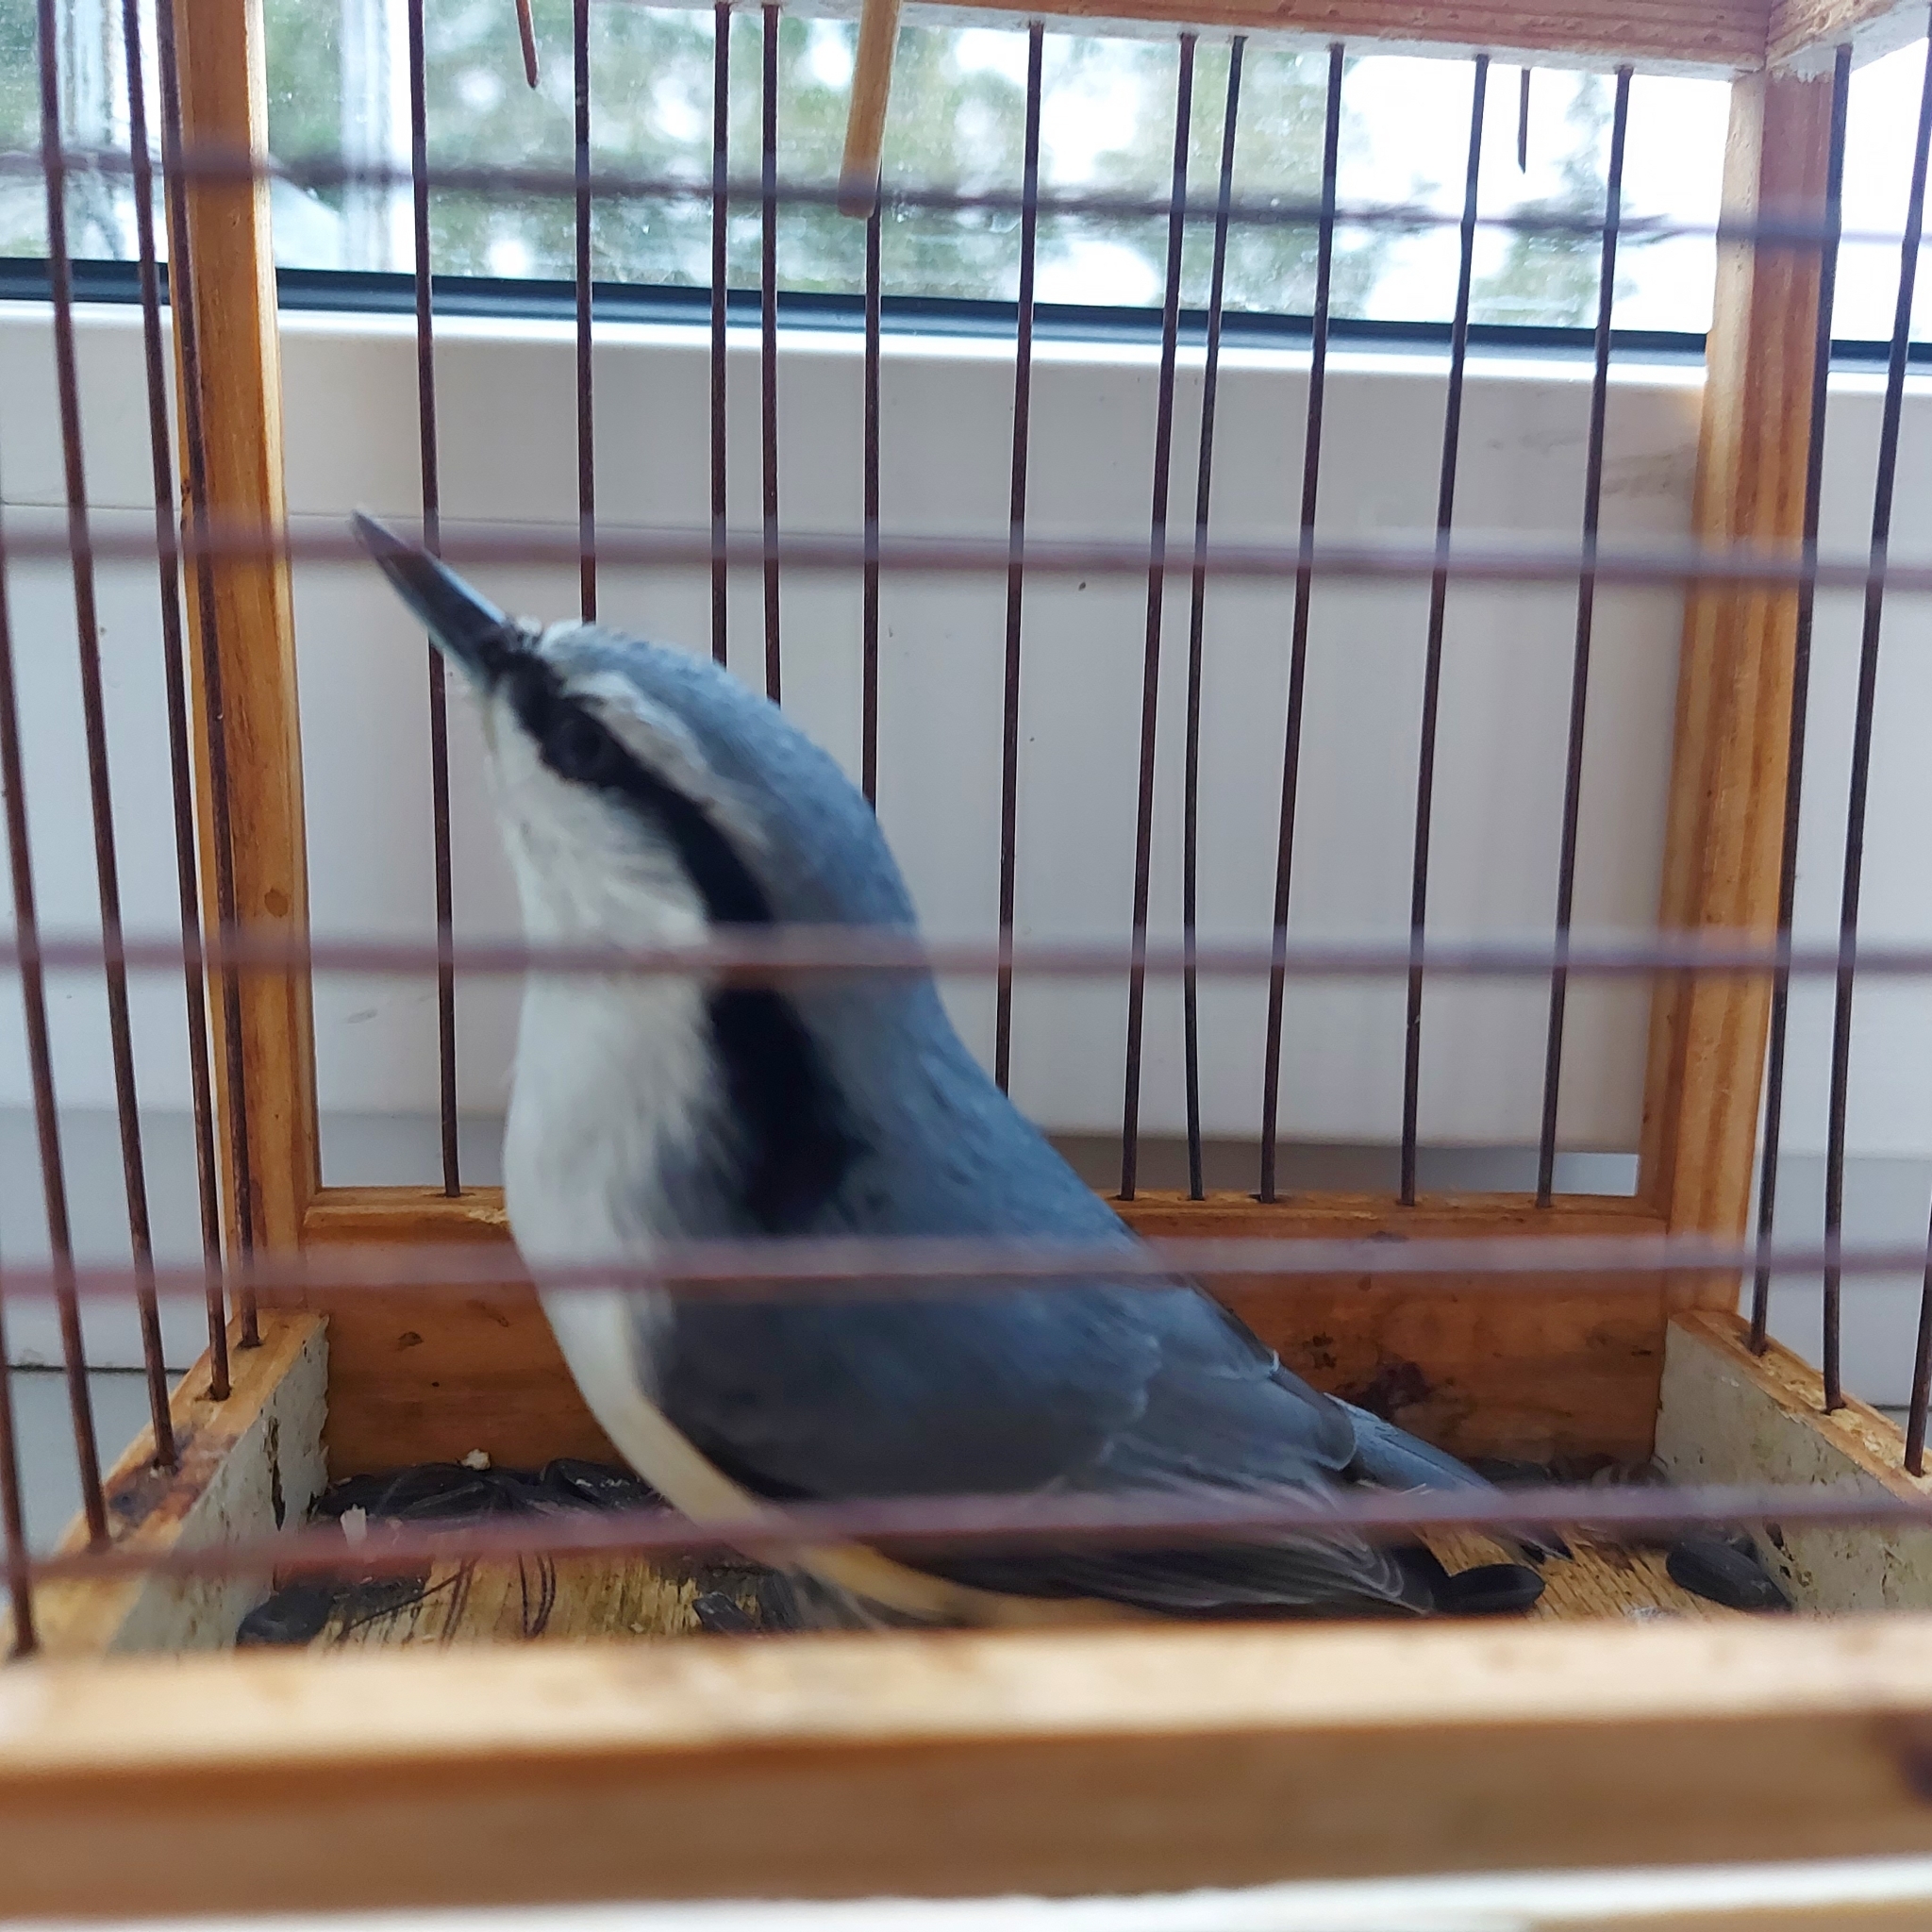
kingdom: Animalia
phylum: Chordata
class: Aves
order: Passeriformes
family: Sittidae
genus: Sitta
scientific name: Sitta europaea
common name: Eurasian nuthatch
